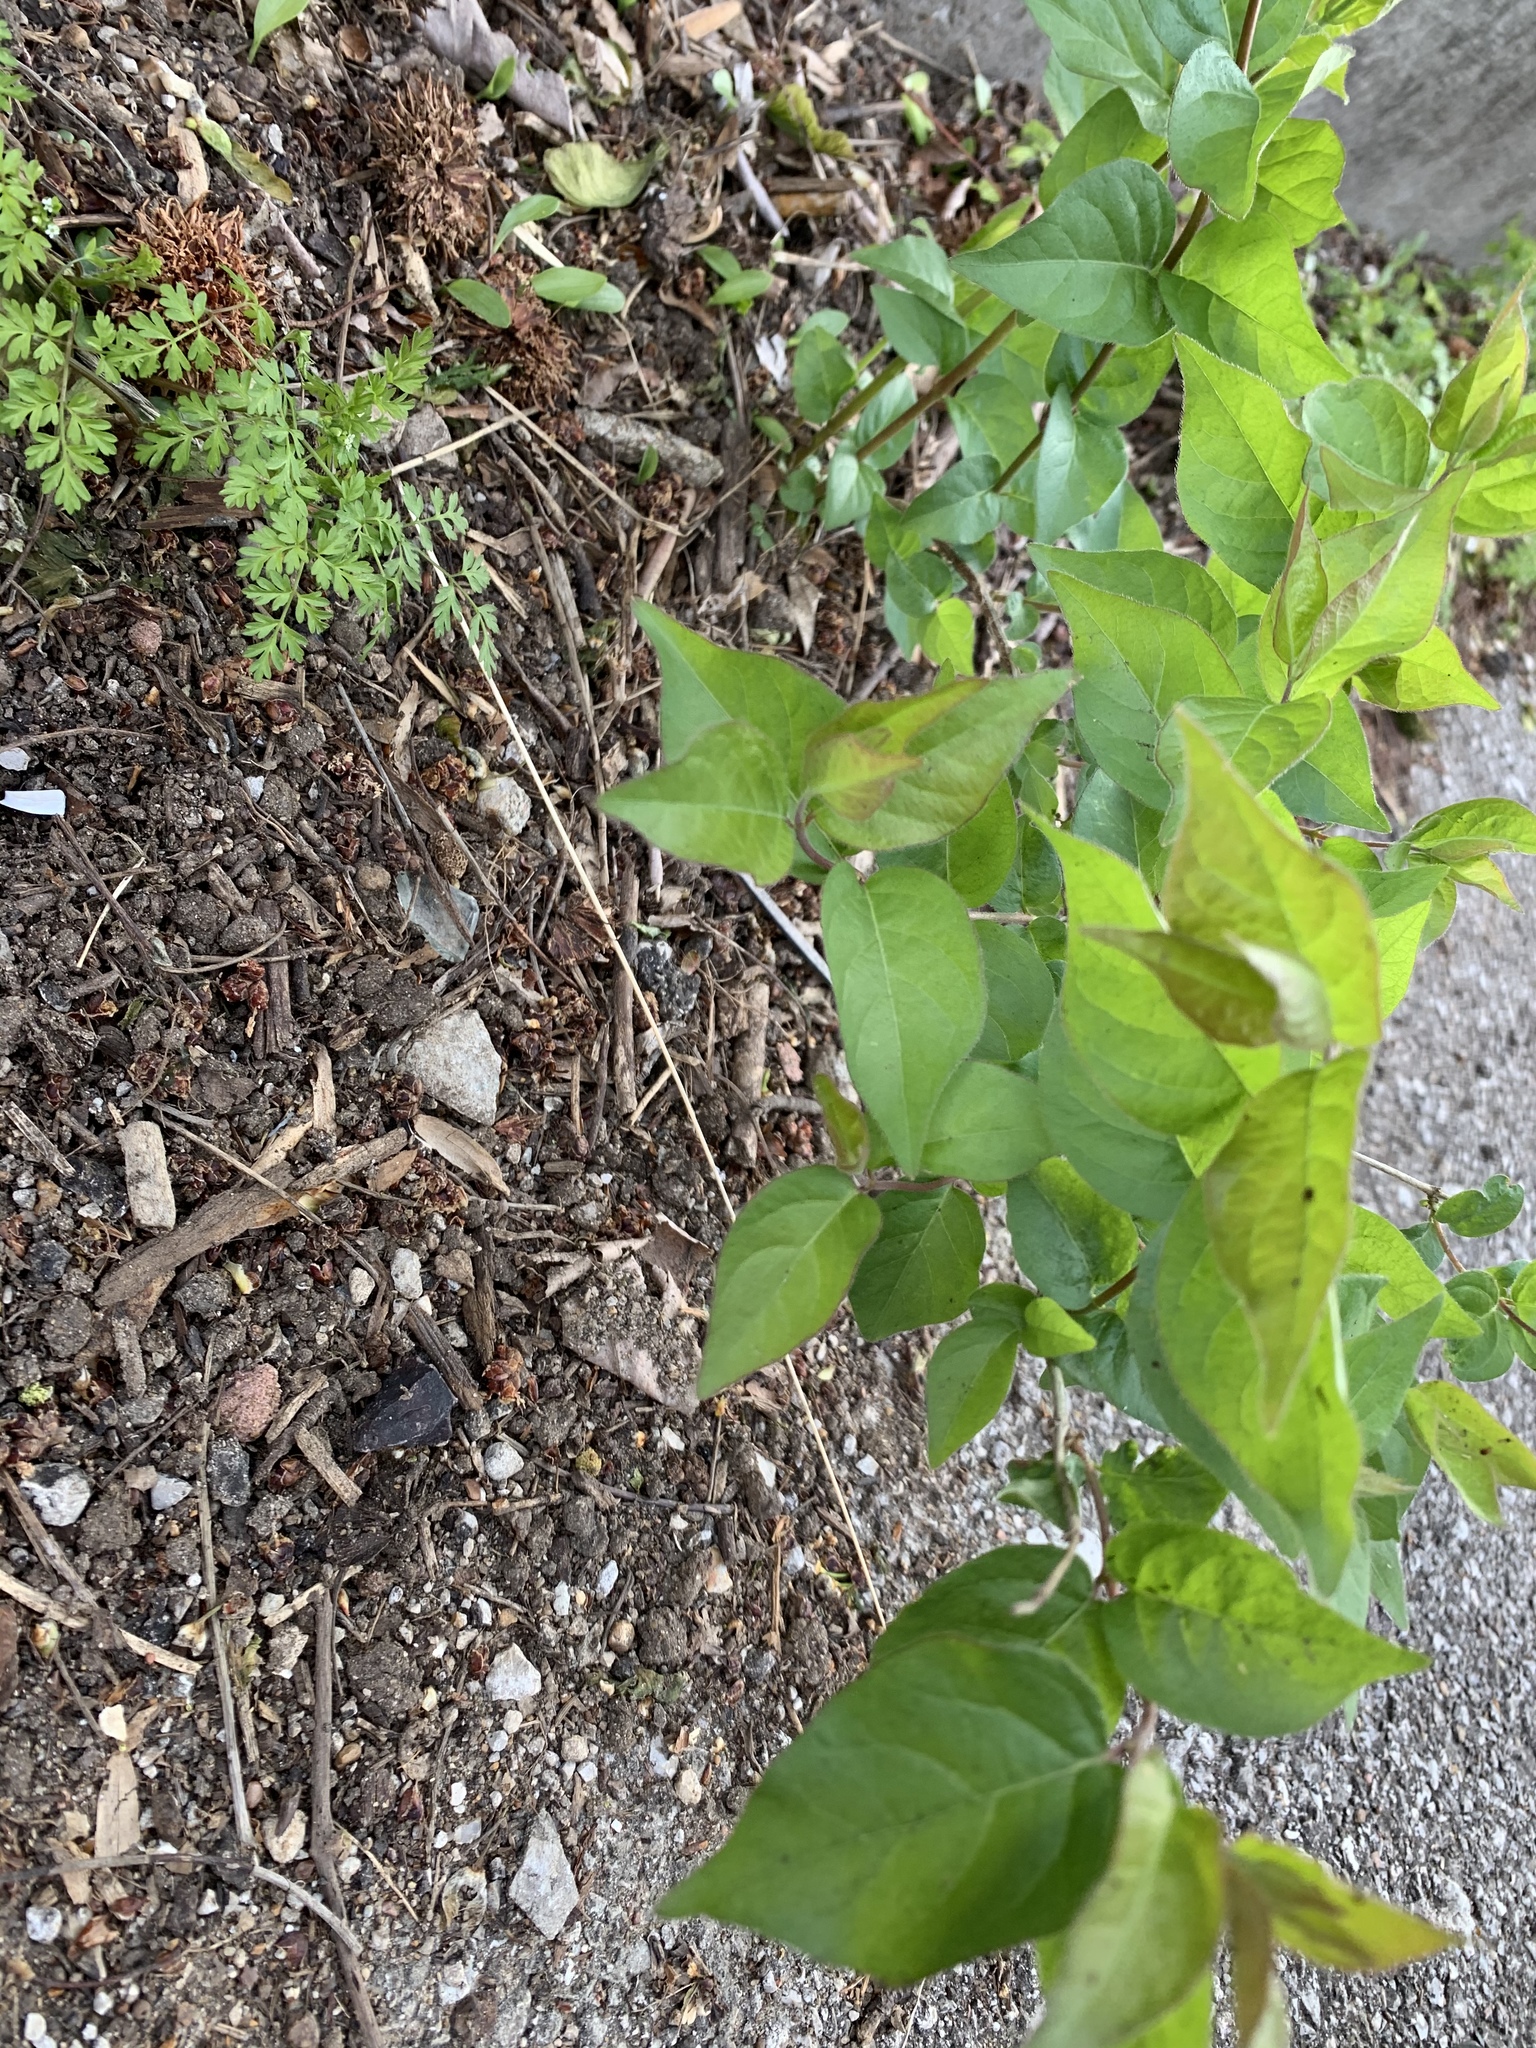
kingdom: Plantae
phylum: Tracheophyta
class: Magnoliopsida
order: Dipsacales
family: Caprifoliaceae
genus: Lonicera
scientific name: Lonicera maackii
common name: Amur honeysuckle
